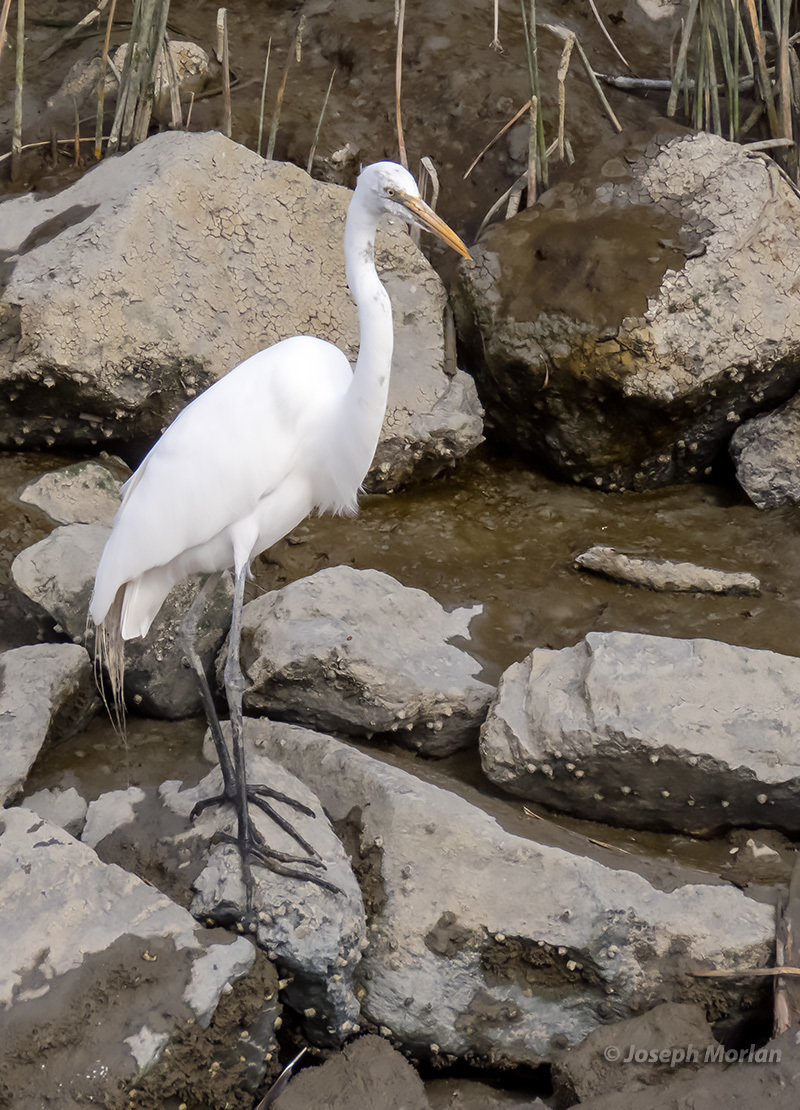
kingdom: Animalia
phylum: Chordata
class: Aves
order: Pelecaniformes
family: Ardeidae
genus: Ardea
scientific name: Ardea alba
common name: Great egret
